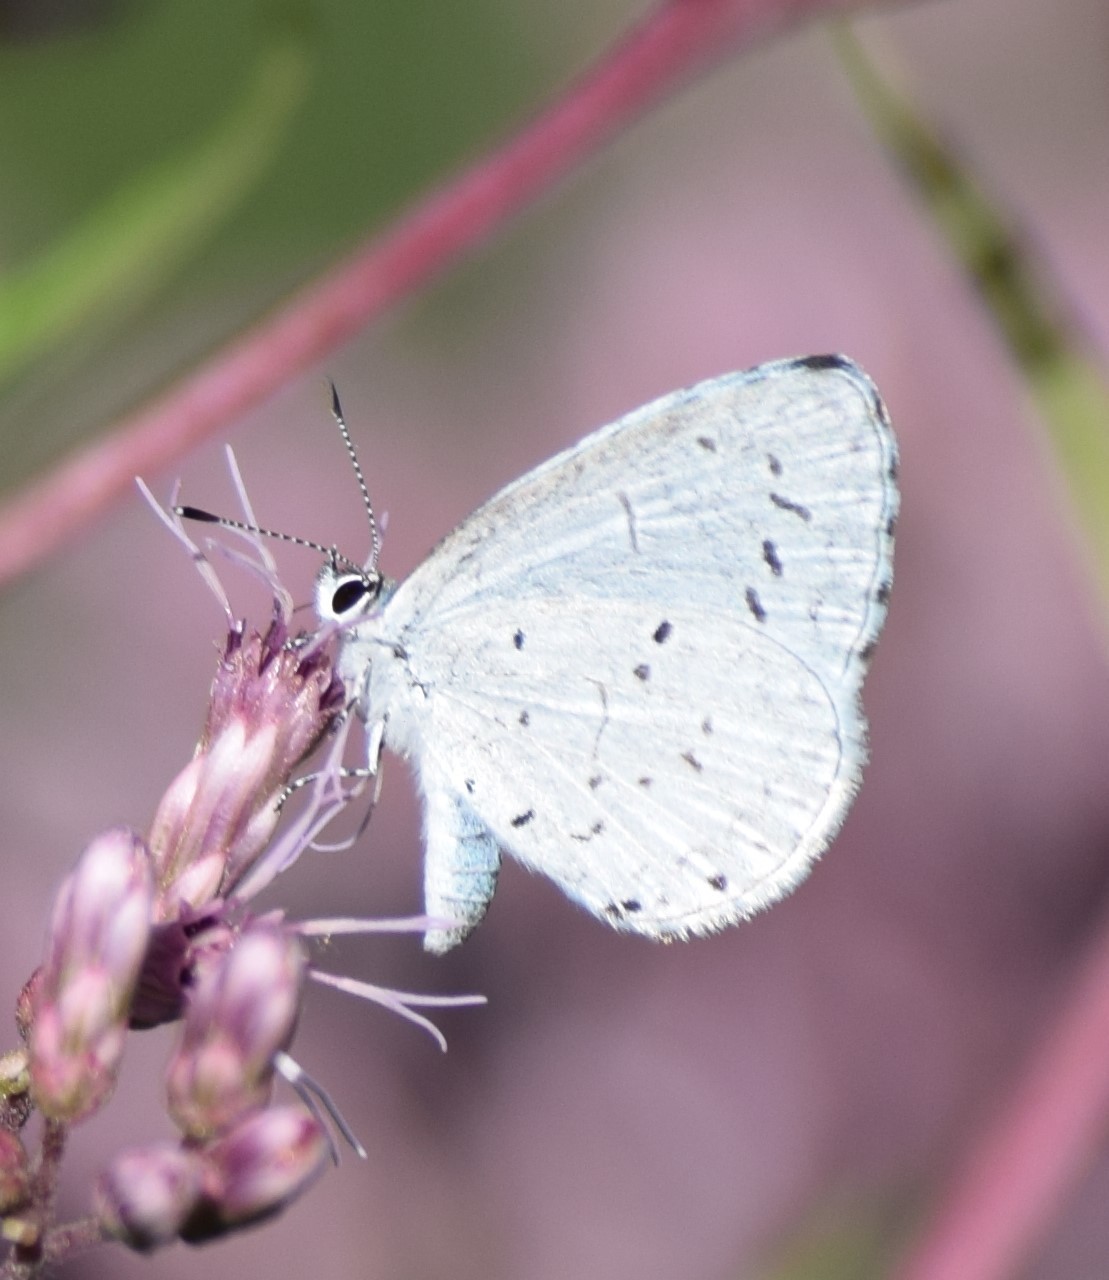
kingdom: Animalia
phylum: Arthropoda
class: Insecta
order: Lepidoptera
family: Lycaenidae
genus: Cyaniris
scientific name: Cyaniris neglecta
